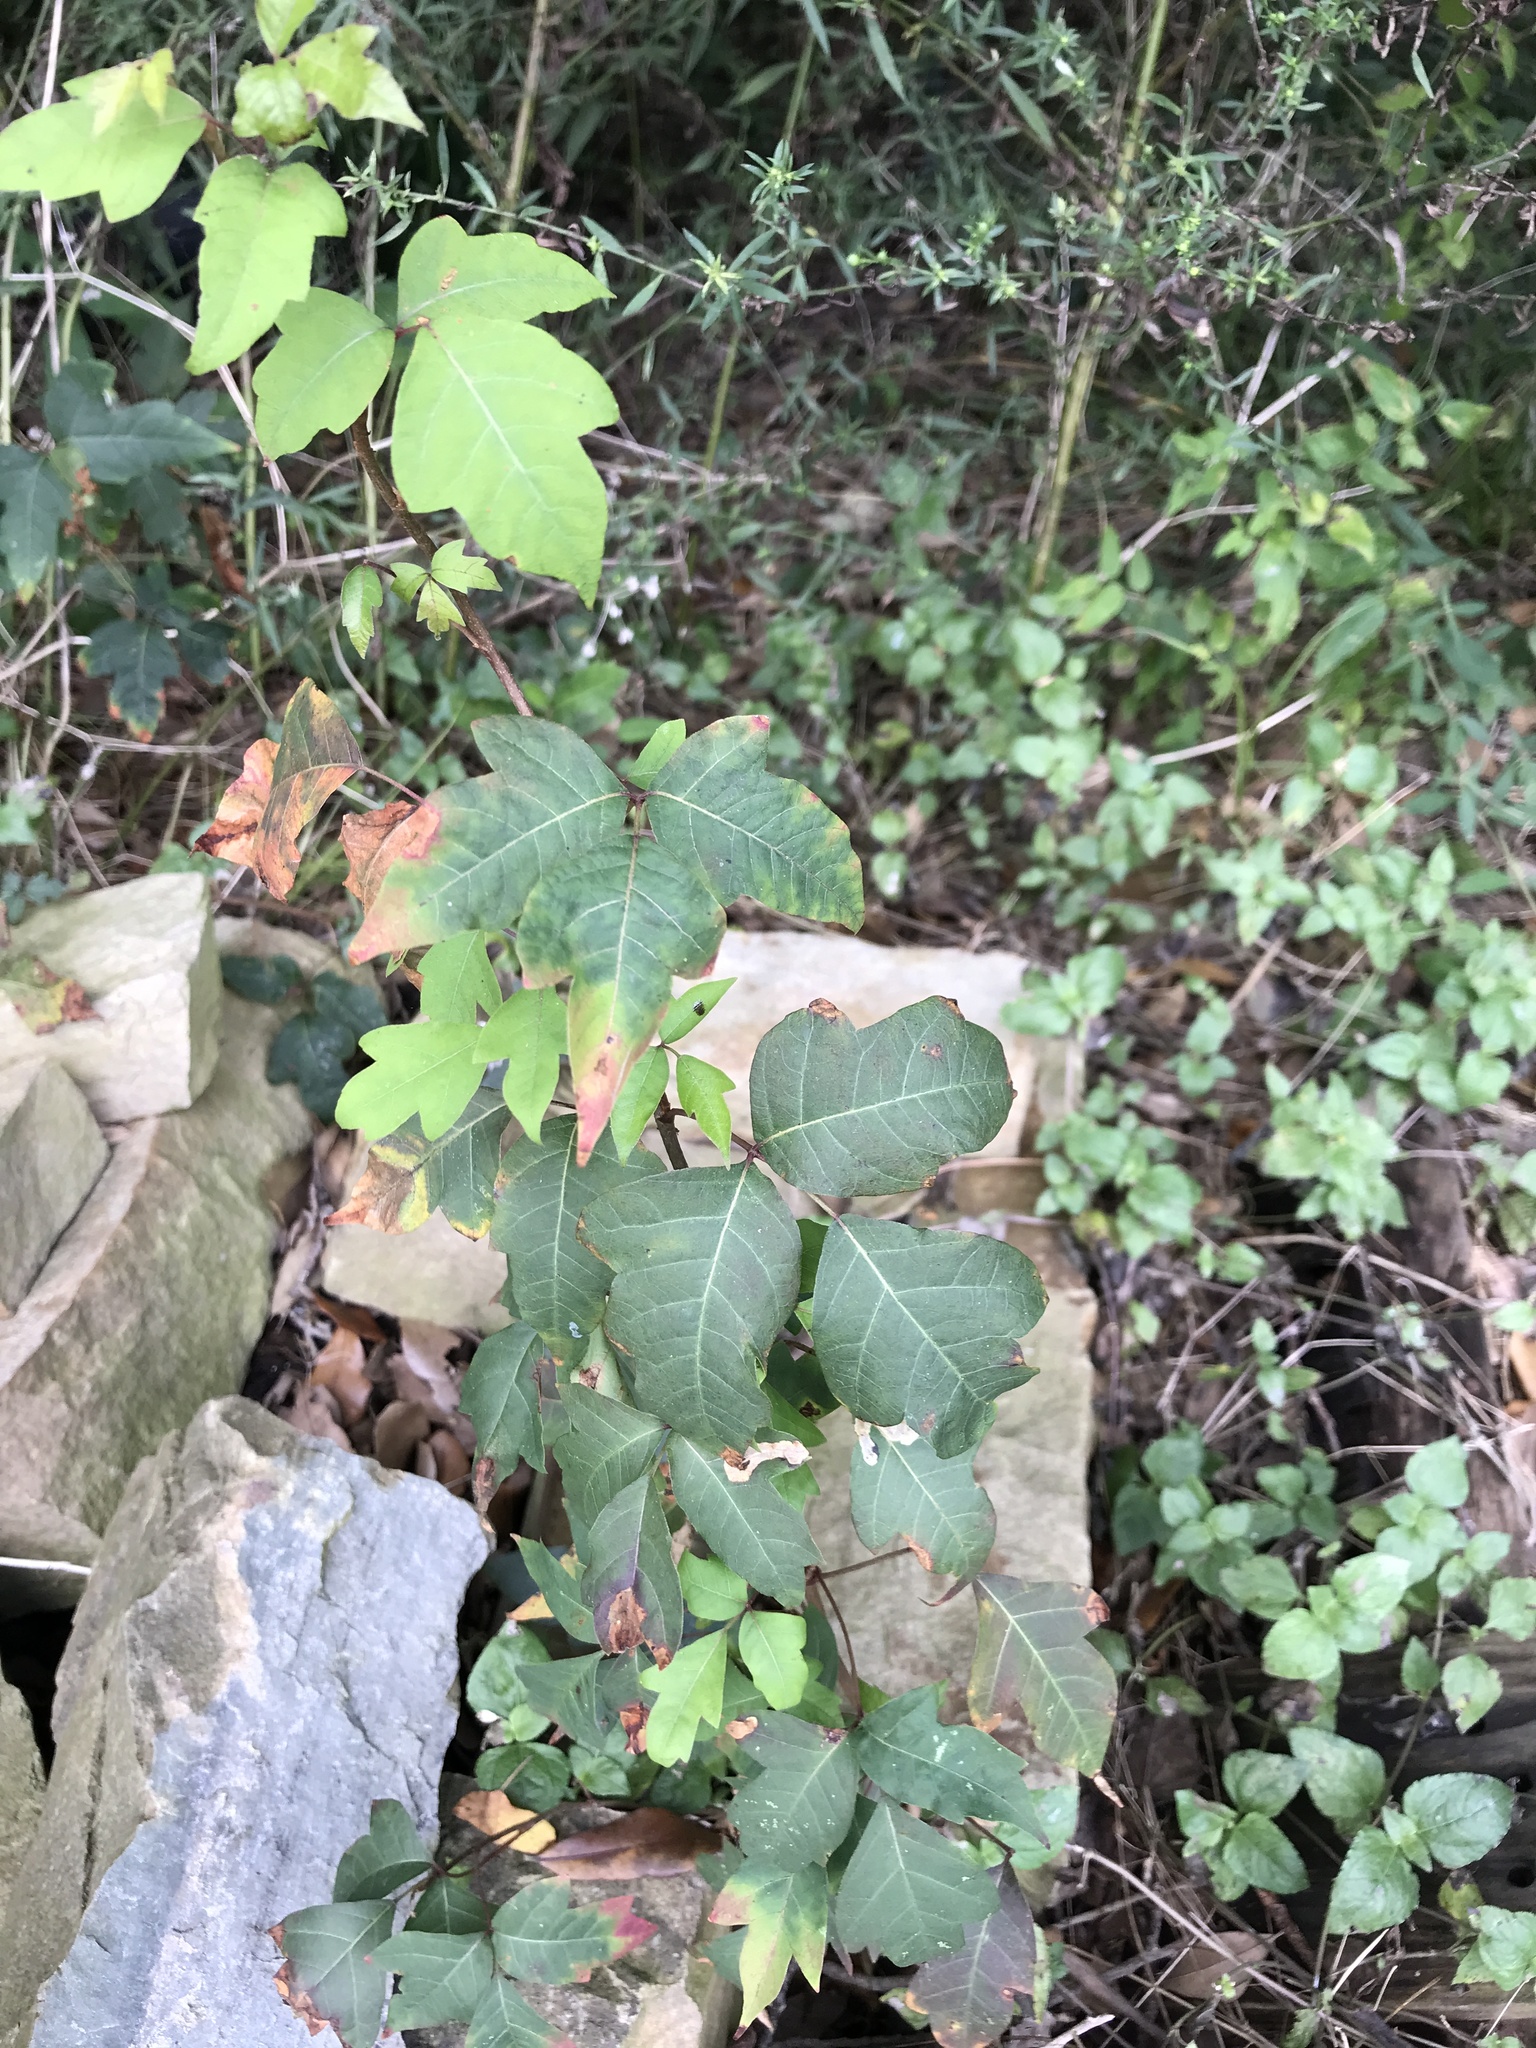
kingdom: Plantae
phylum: Tracheophyta
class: Magnoliopsida
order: Sapindales
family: Anacardiaceae
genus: Toxicodendron
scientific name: Toxicodendron radicans
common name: Poison ivy
